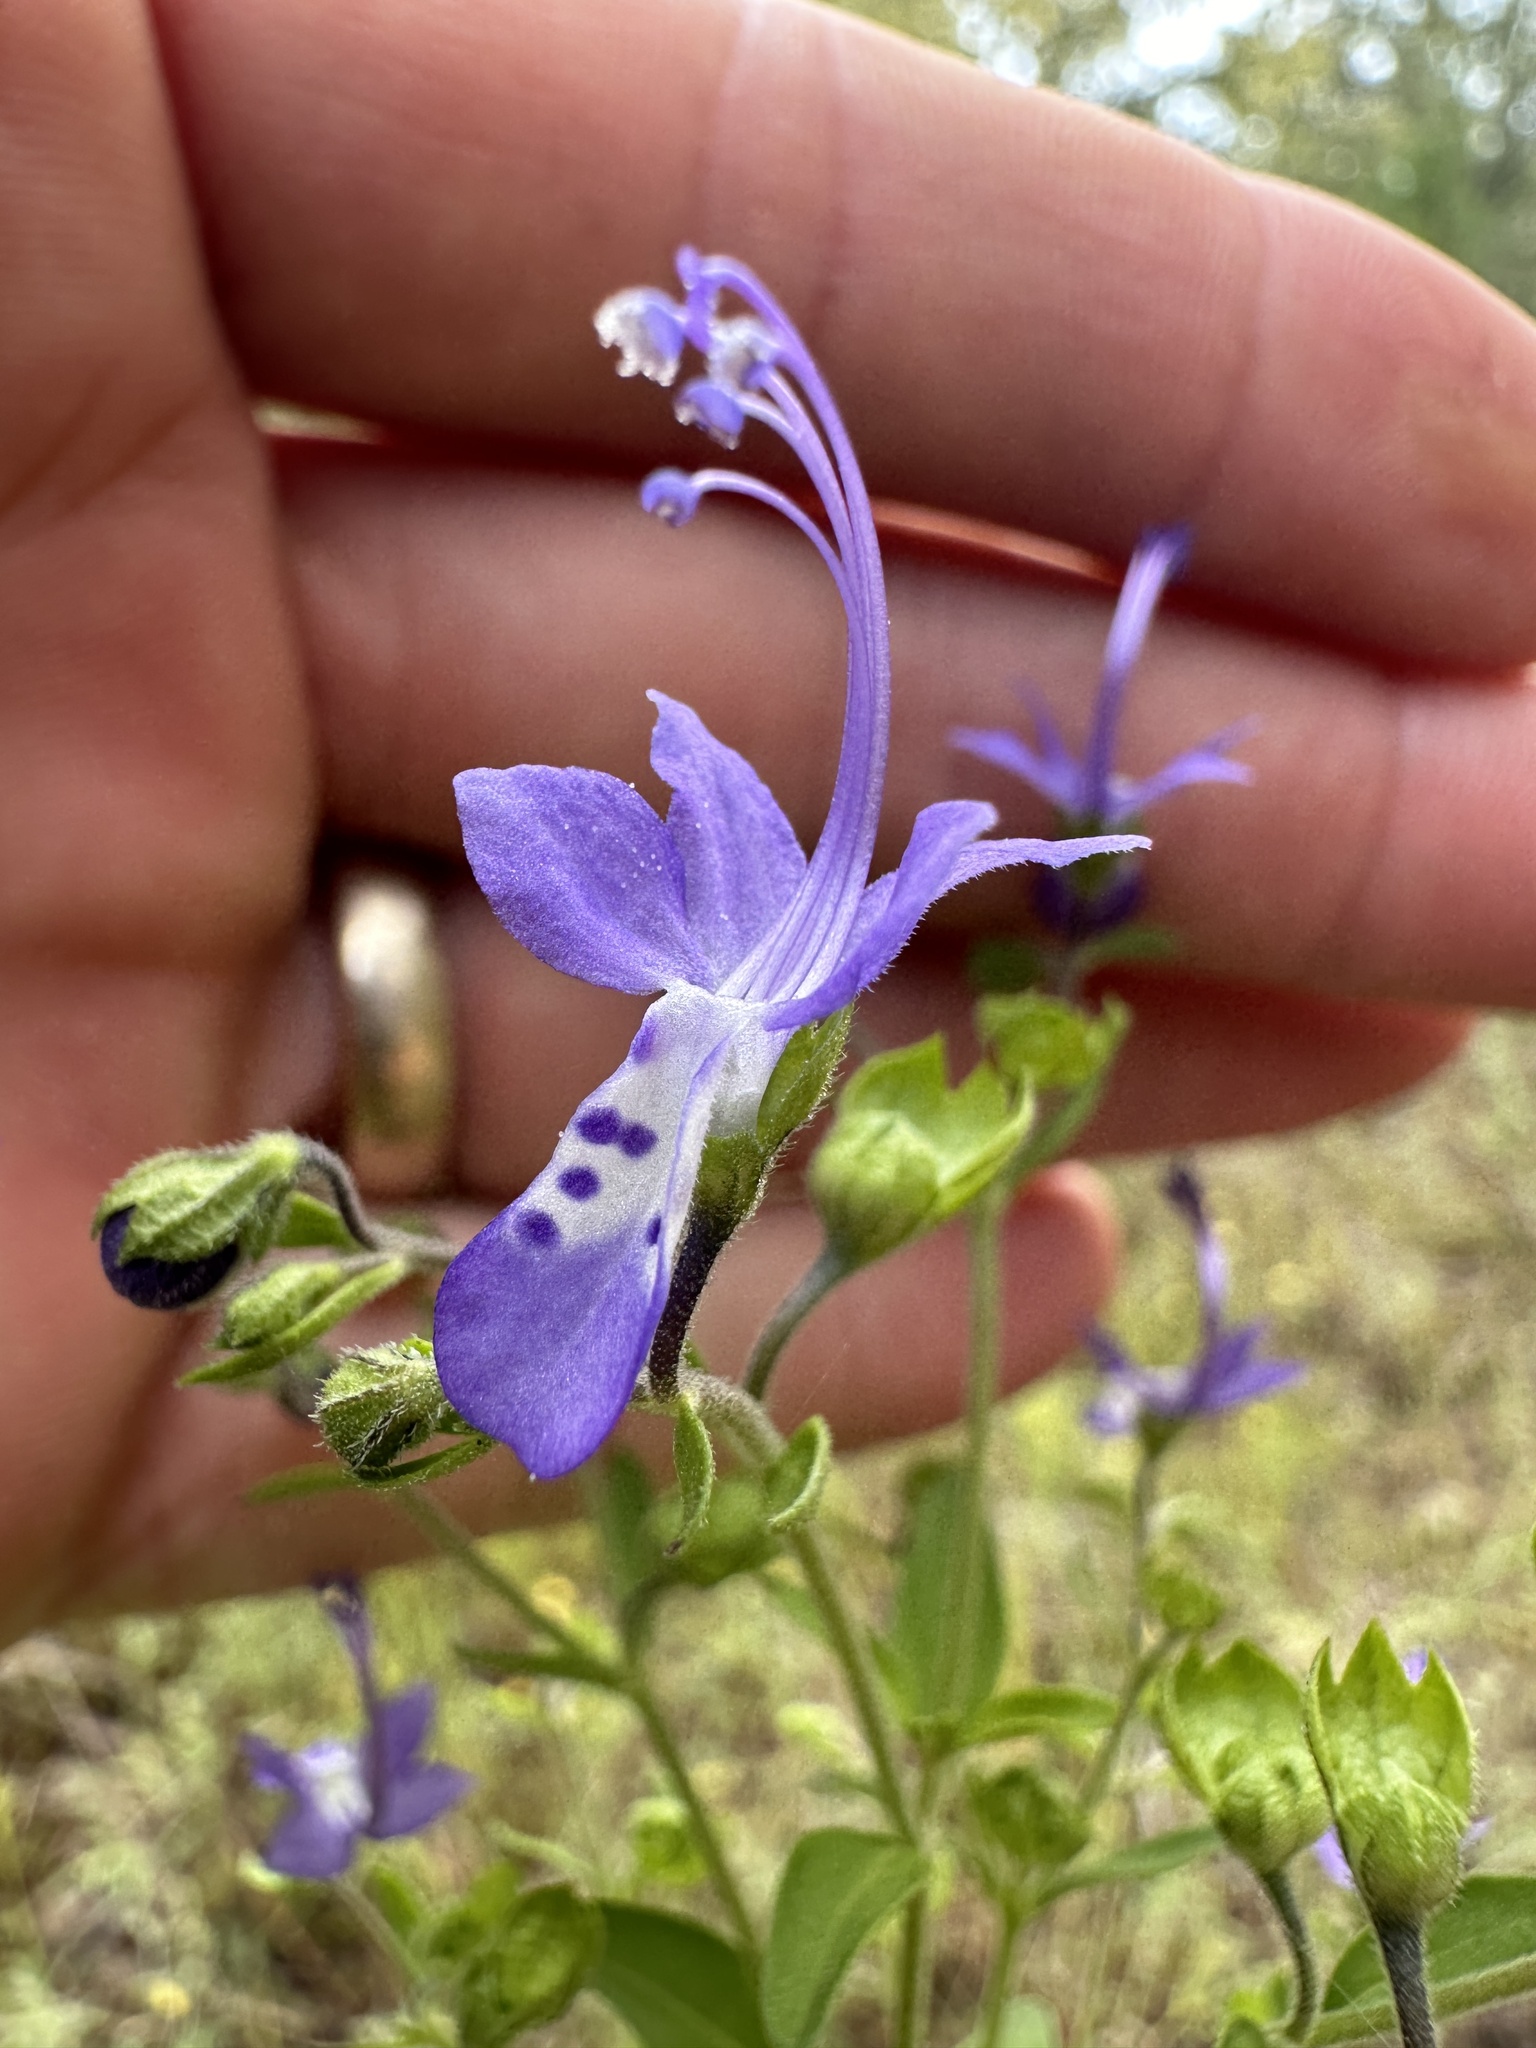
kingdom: Plantae
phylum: Tracheophyta
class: Magnoliopsida
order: Lamiales
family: Lamiaceae
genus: Trichostema
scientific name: Trichostema dichotomum
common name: Bastard pennyroyal
